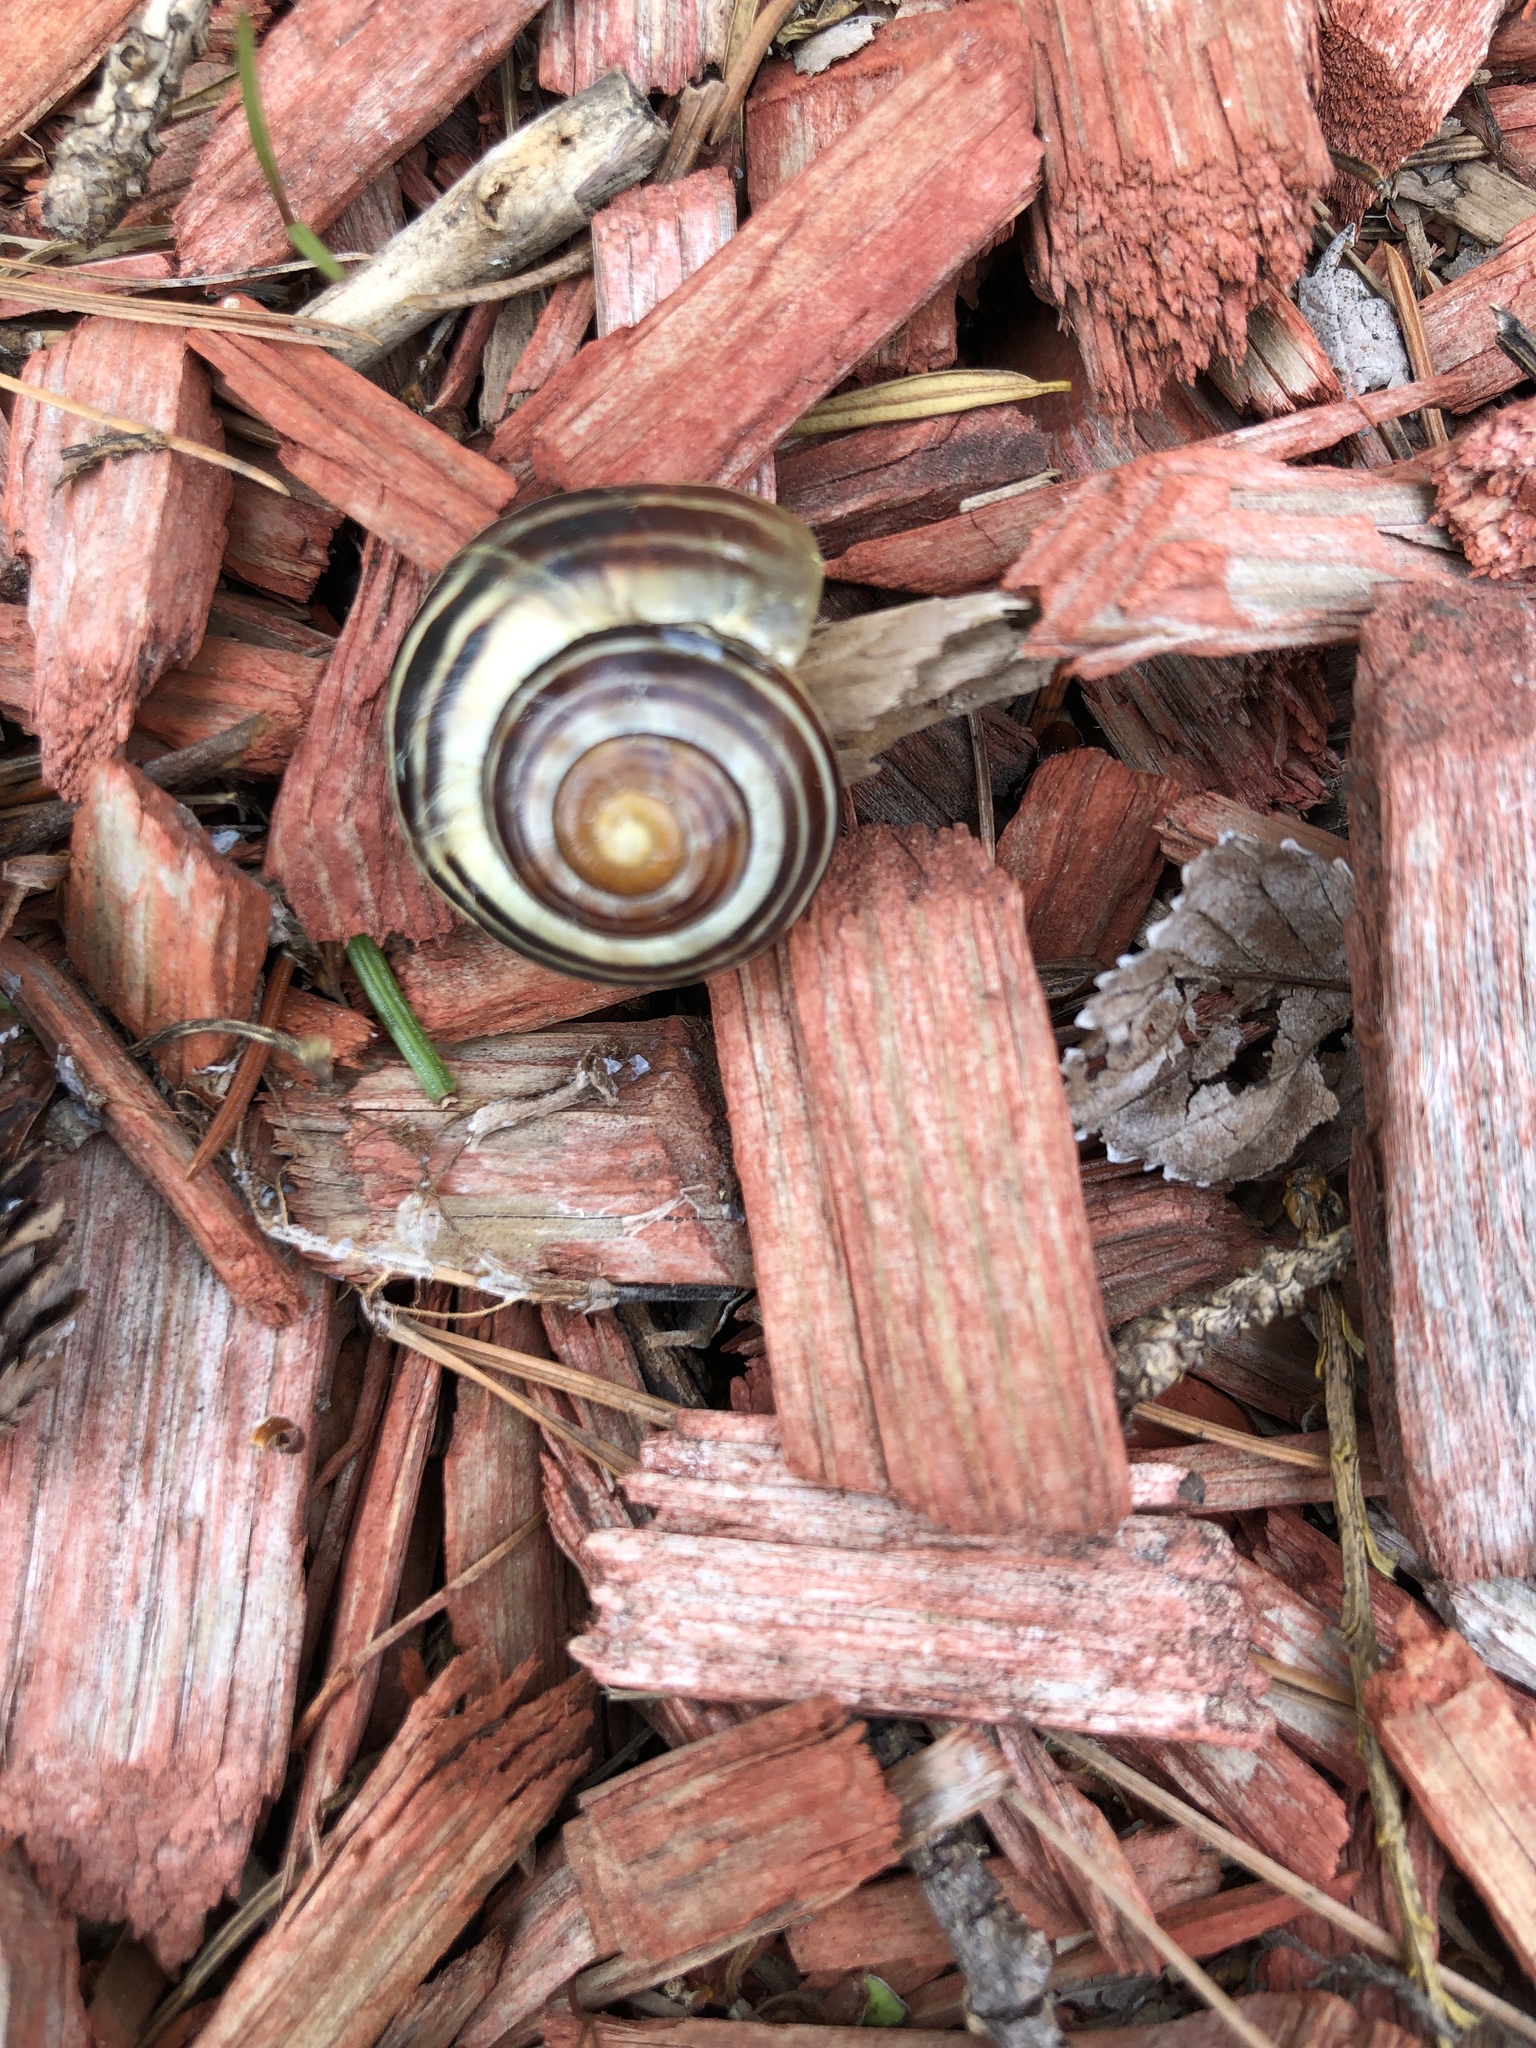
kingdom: Animalia
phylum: Mollusca
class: Gastropoda
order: Stylommatophora
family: Helicidae
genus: Cepaea
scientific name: Cepaea nemoralis
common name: Grovesnail
